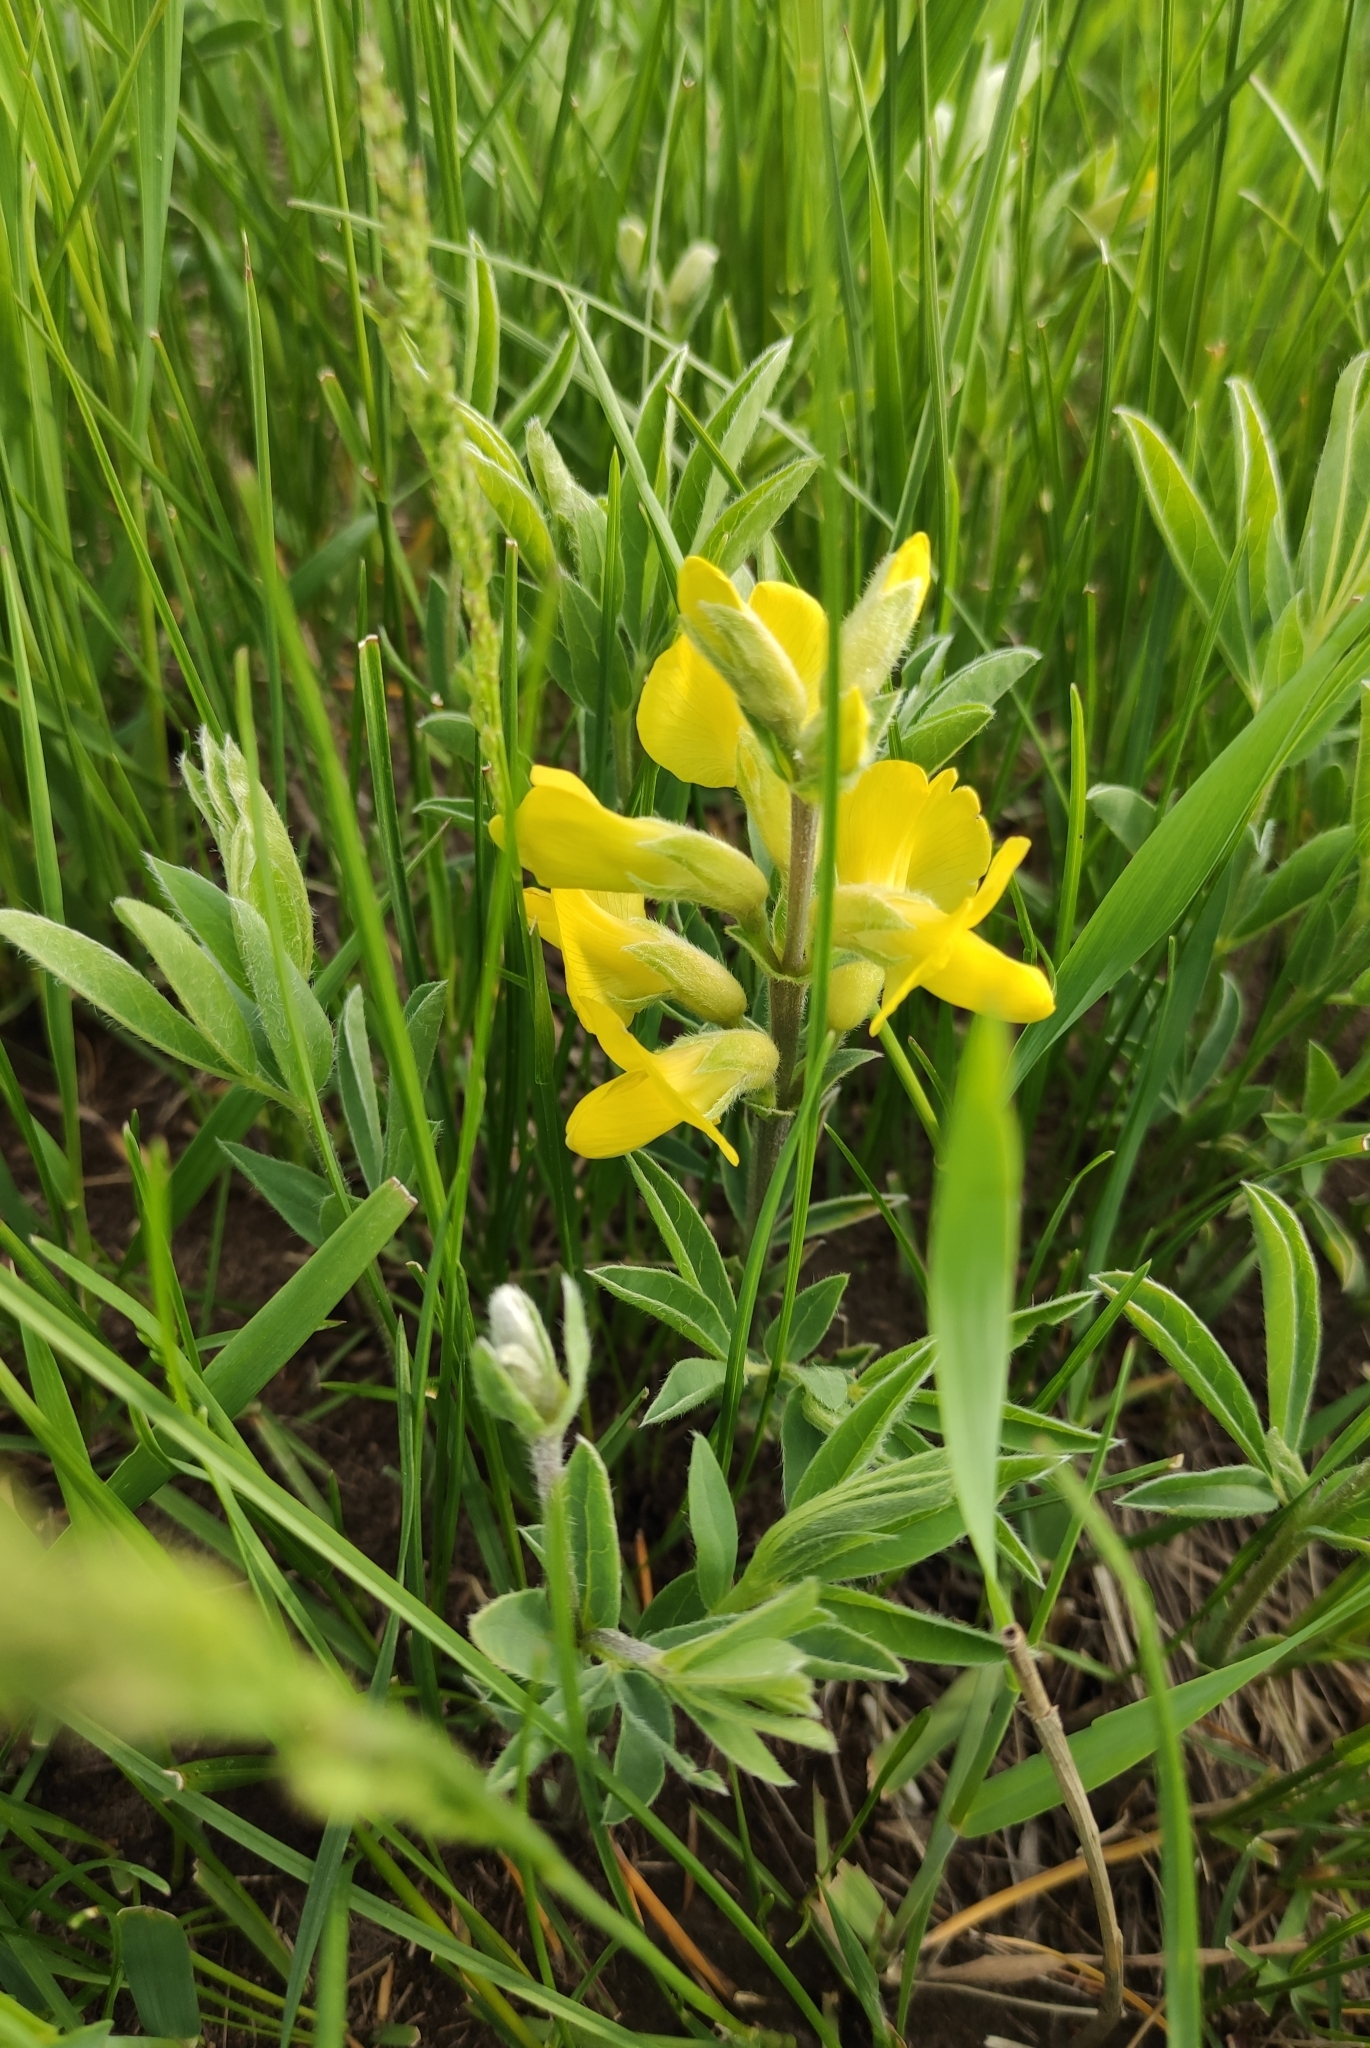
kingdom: Plantae
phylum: Tracheophyta
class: Magnoliopsida
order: Fabales
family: Fabaceae
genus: Thermopsis
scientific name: Thermopsis lanceolata
